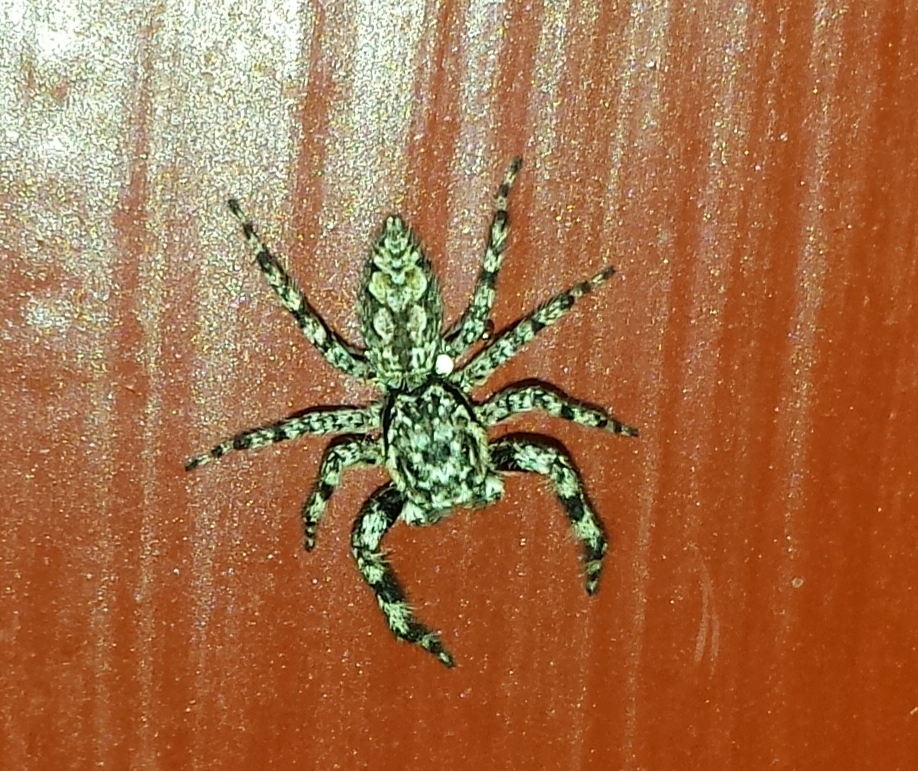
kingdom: Animalia
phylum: Arthropoda
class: Arachnida
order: Araneae
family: Salticidae
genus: Platycryptus
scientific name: Platycryptus undatus
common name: Tan jumping spider
